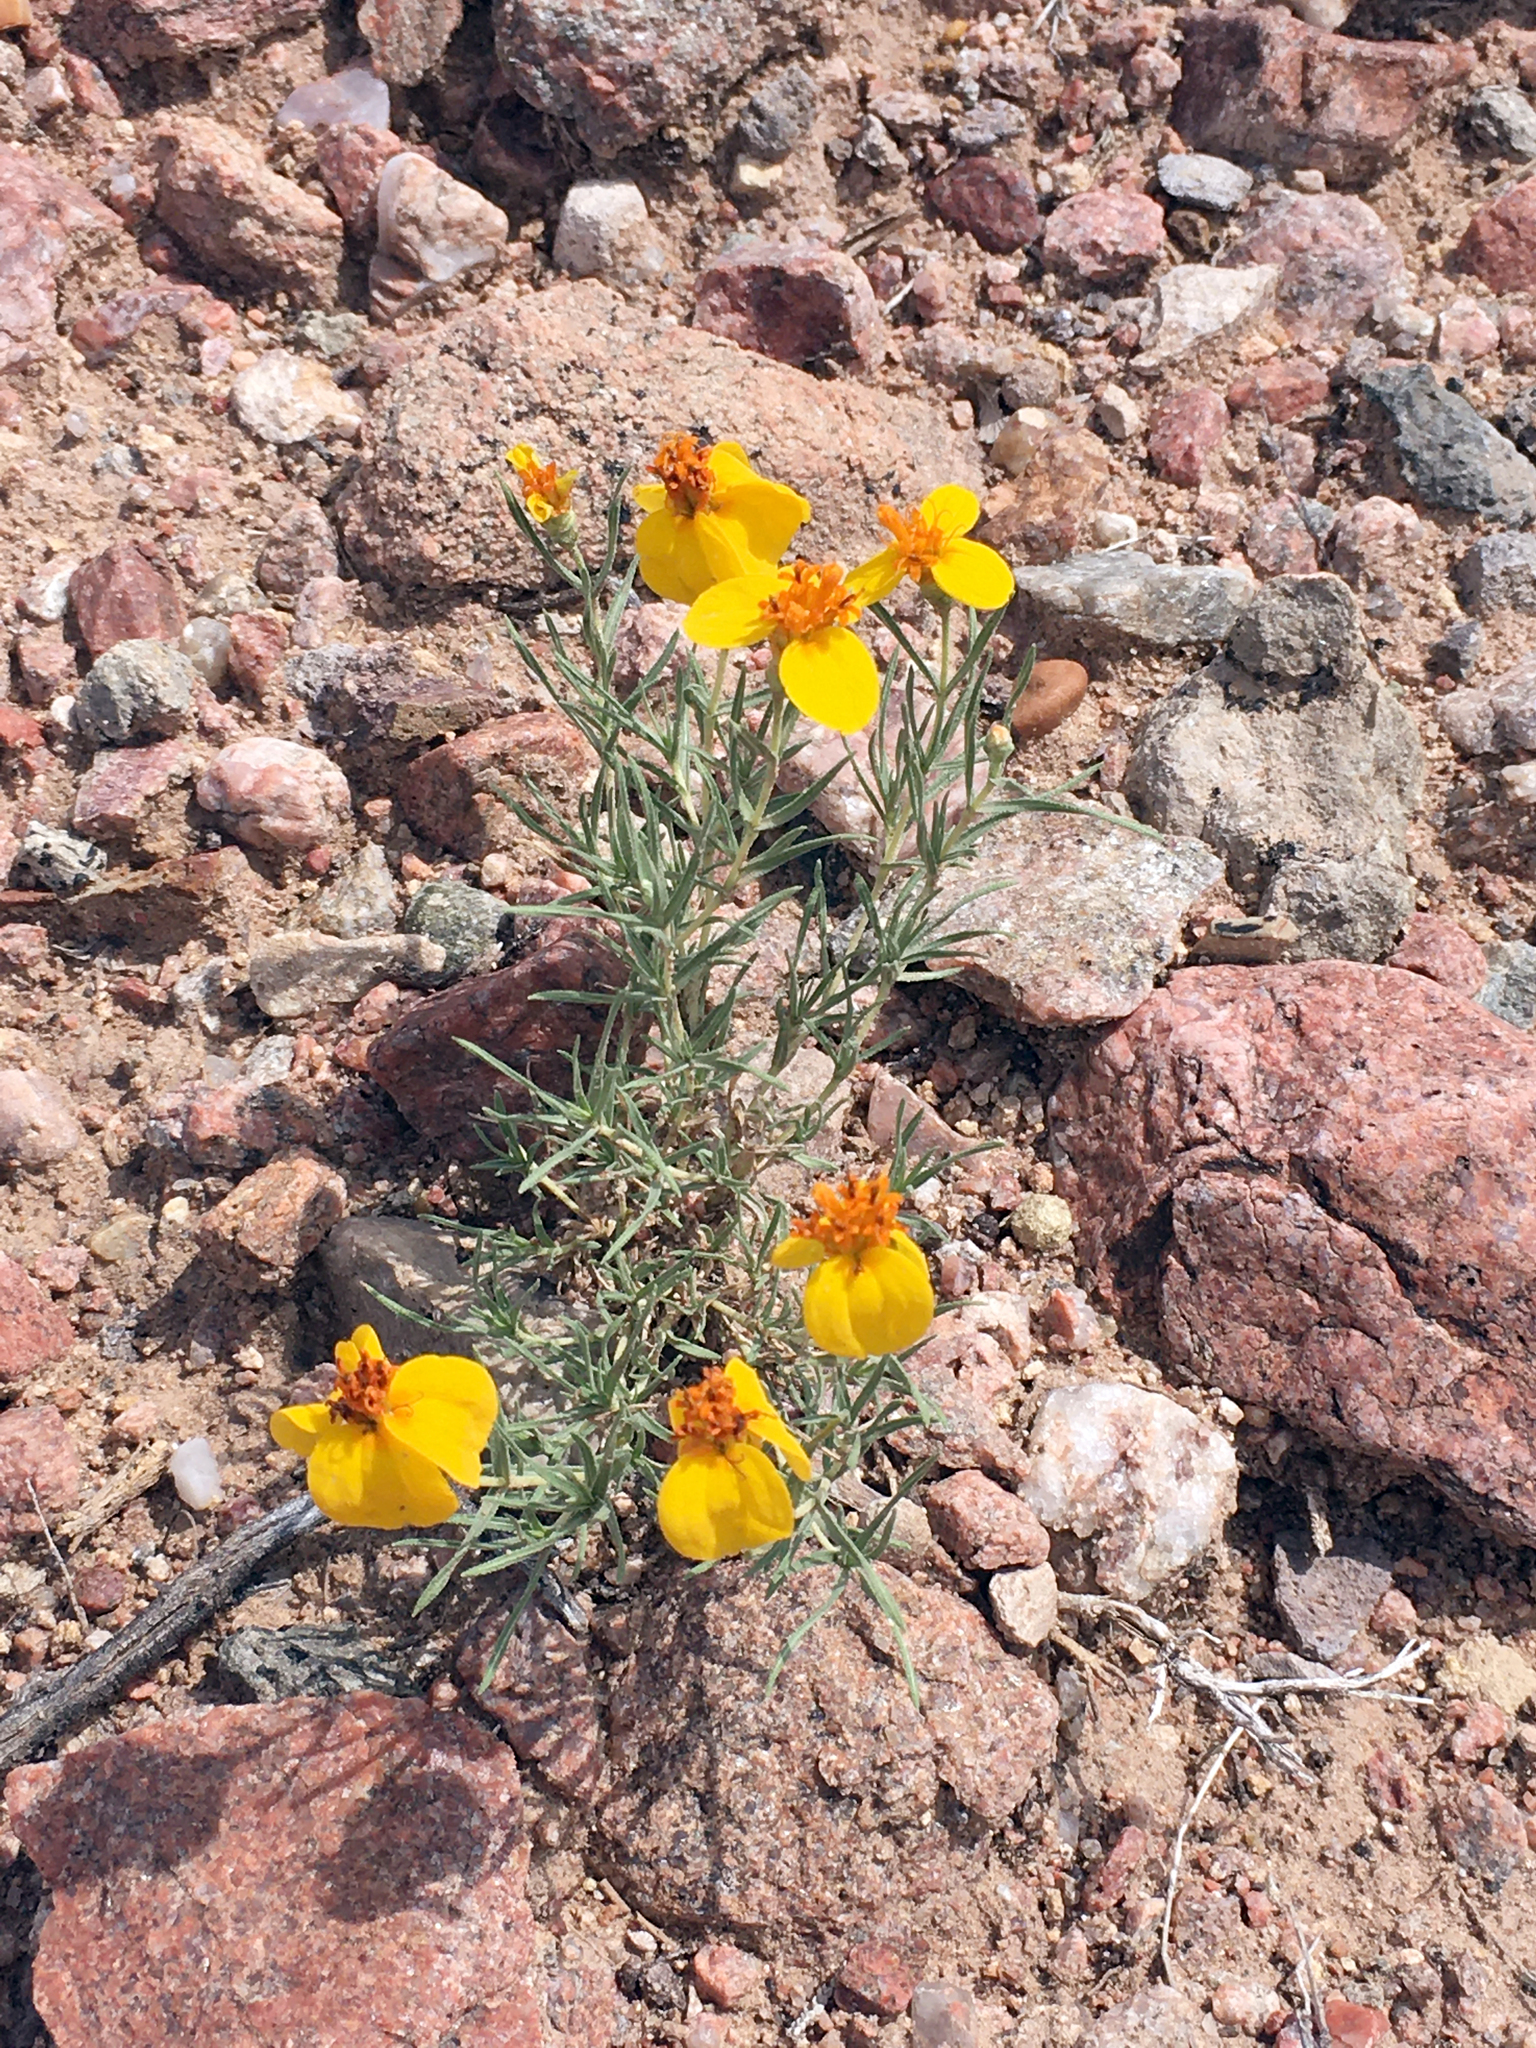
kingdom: Plantae
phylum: Tracheophyta
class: Magnoliopsida
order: Asterales
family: Asteraceae
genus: Zinnia
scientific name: Zinnia grandiflora
